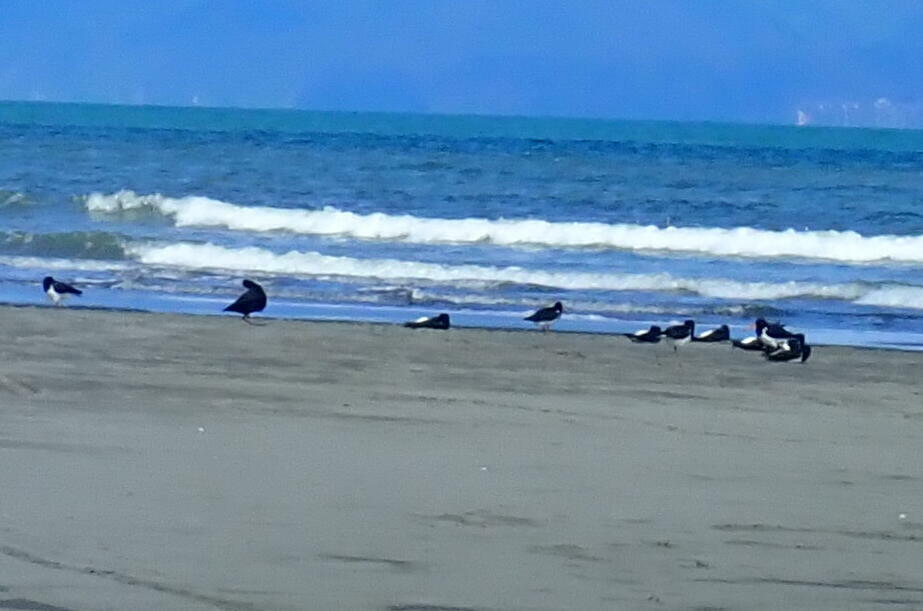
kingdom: Animalia
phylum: Chordata
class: Aves
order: Charadriiformes
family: Haematopodidae
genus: Haematopus
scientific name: Haematopus finschi
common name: South island oystercatcher
